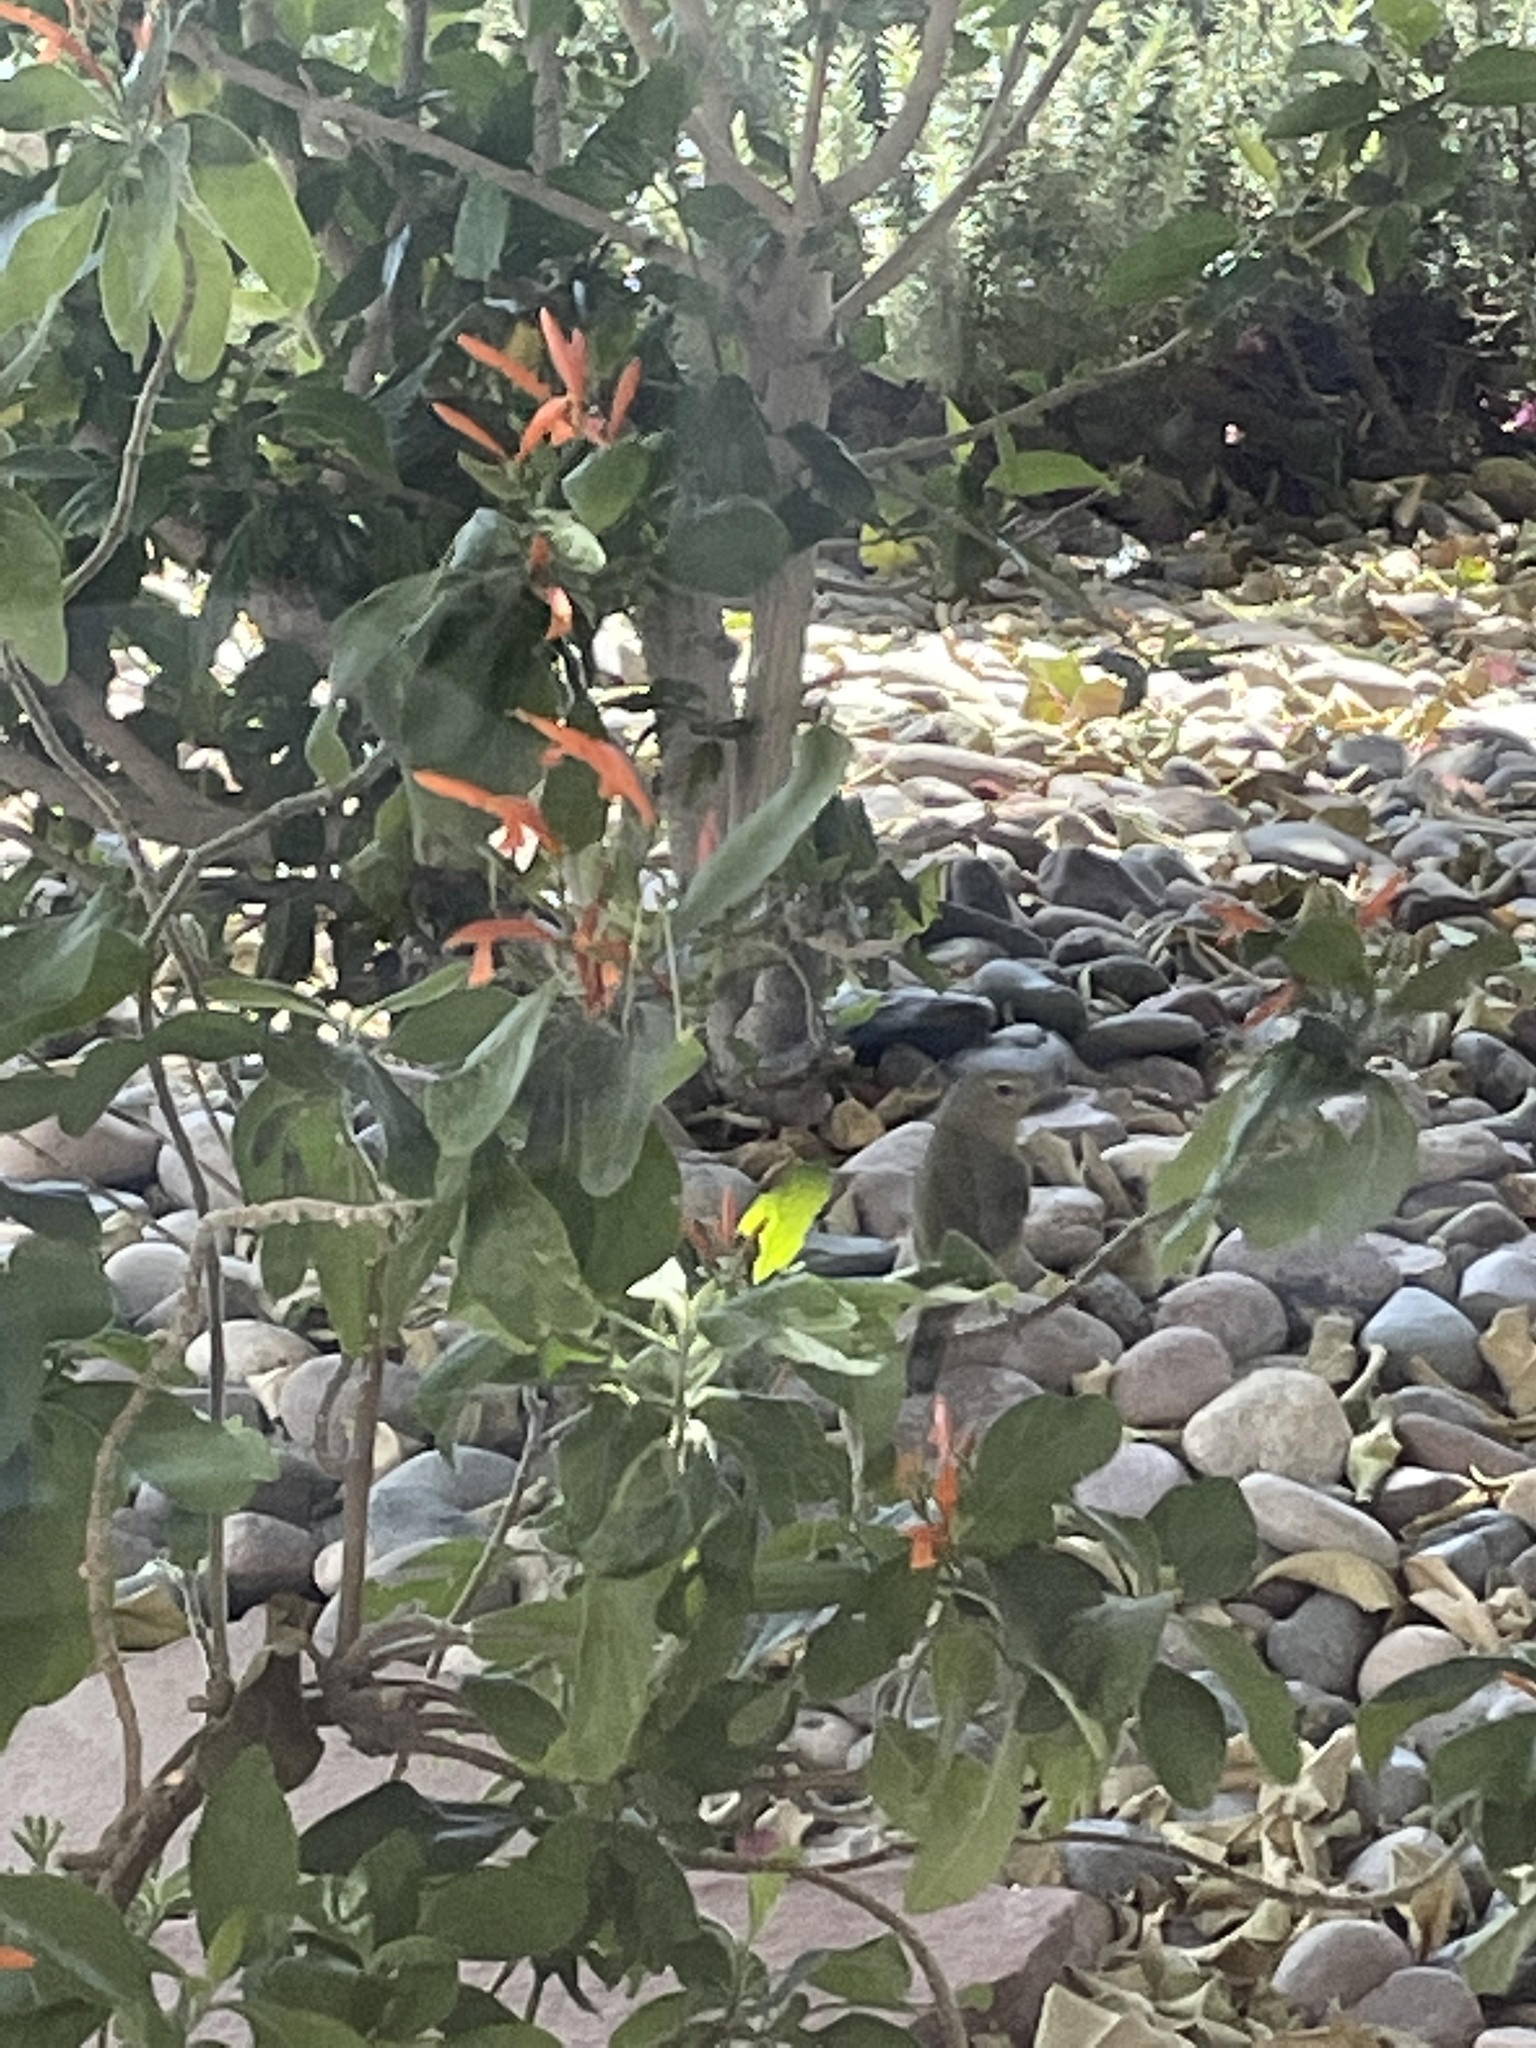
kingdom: Animalia
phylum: Chordata
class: Aves
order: Passeriformes
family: Parulidae
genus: Leiothlypis
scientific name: Leiothlypis celata
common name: Orange-crowned warbler
